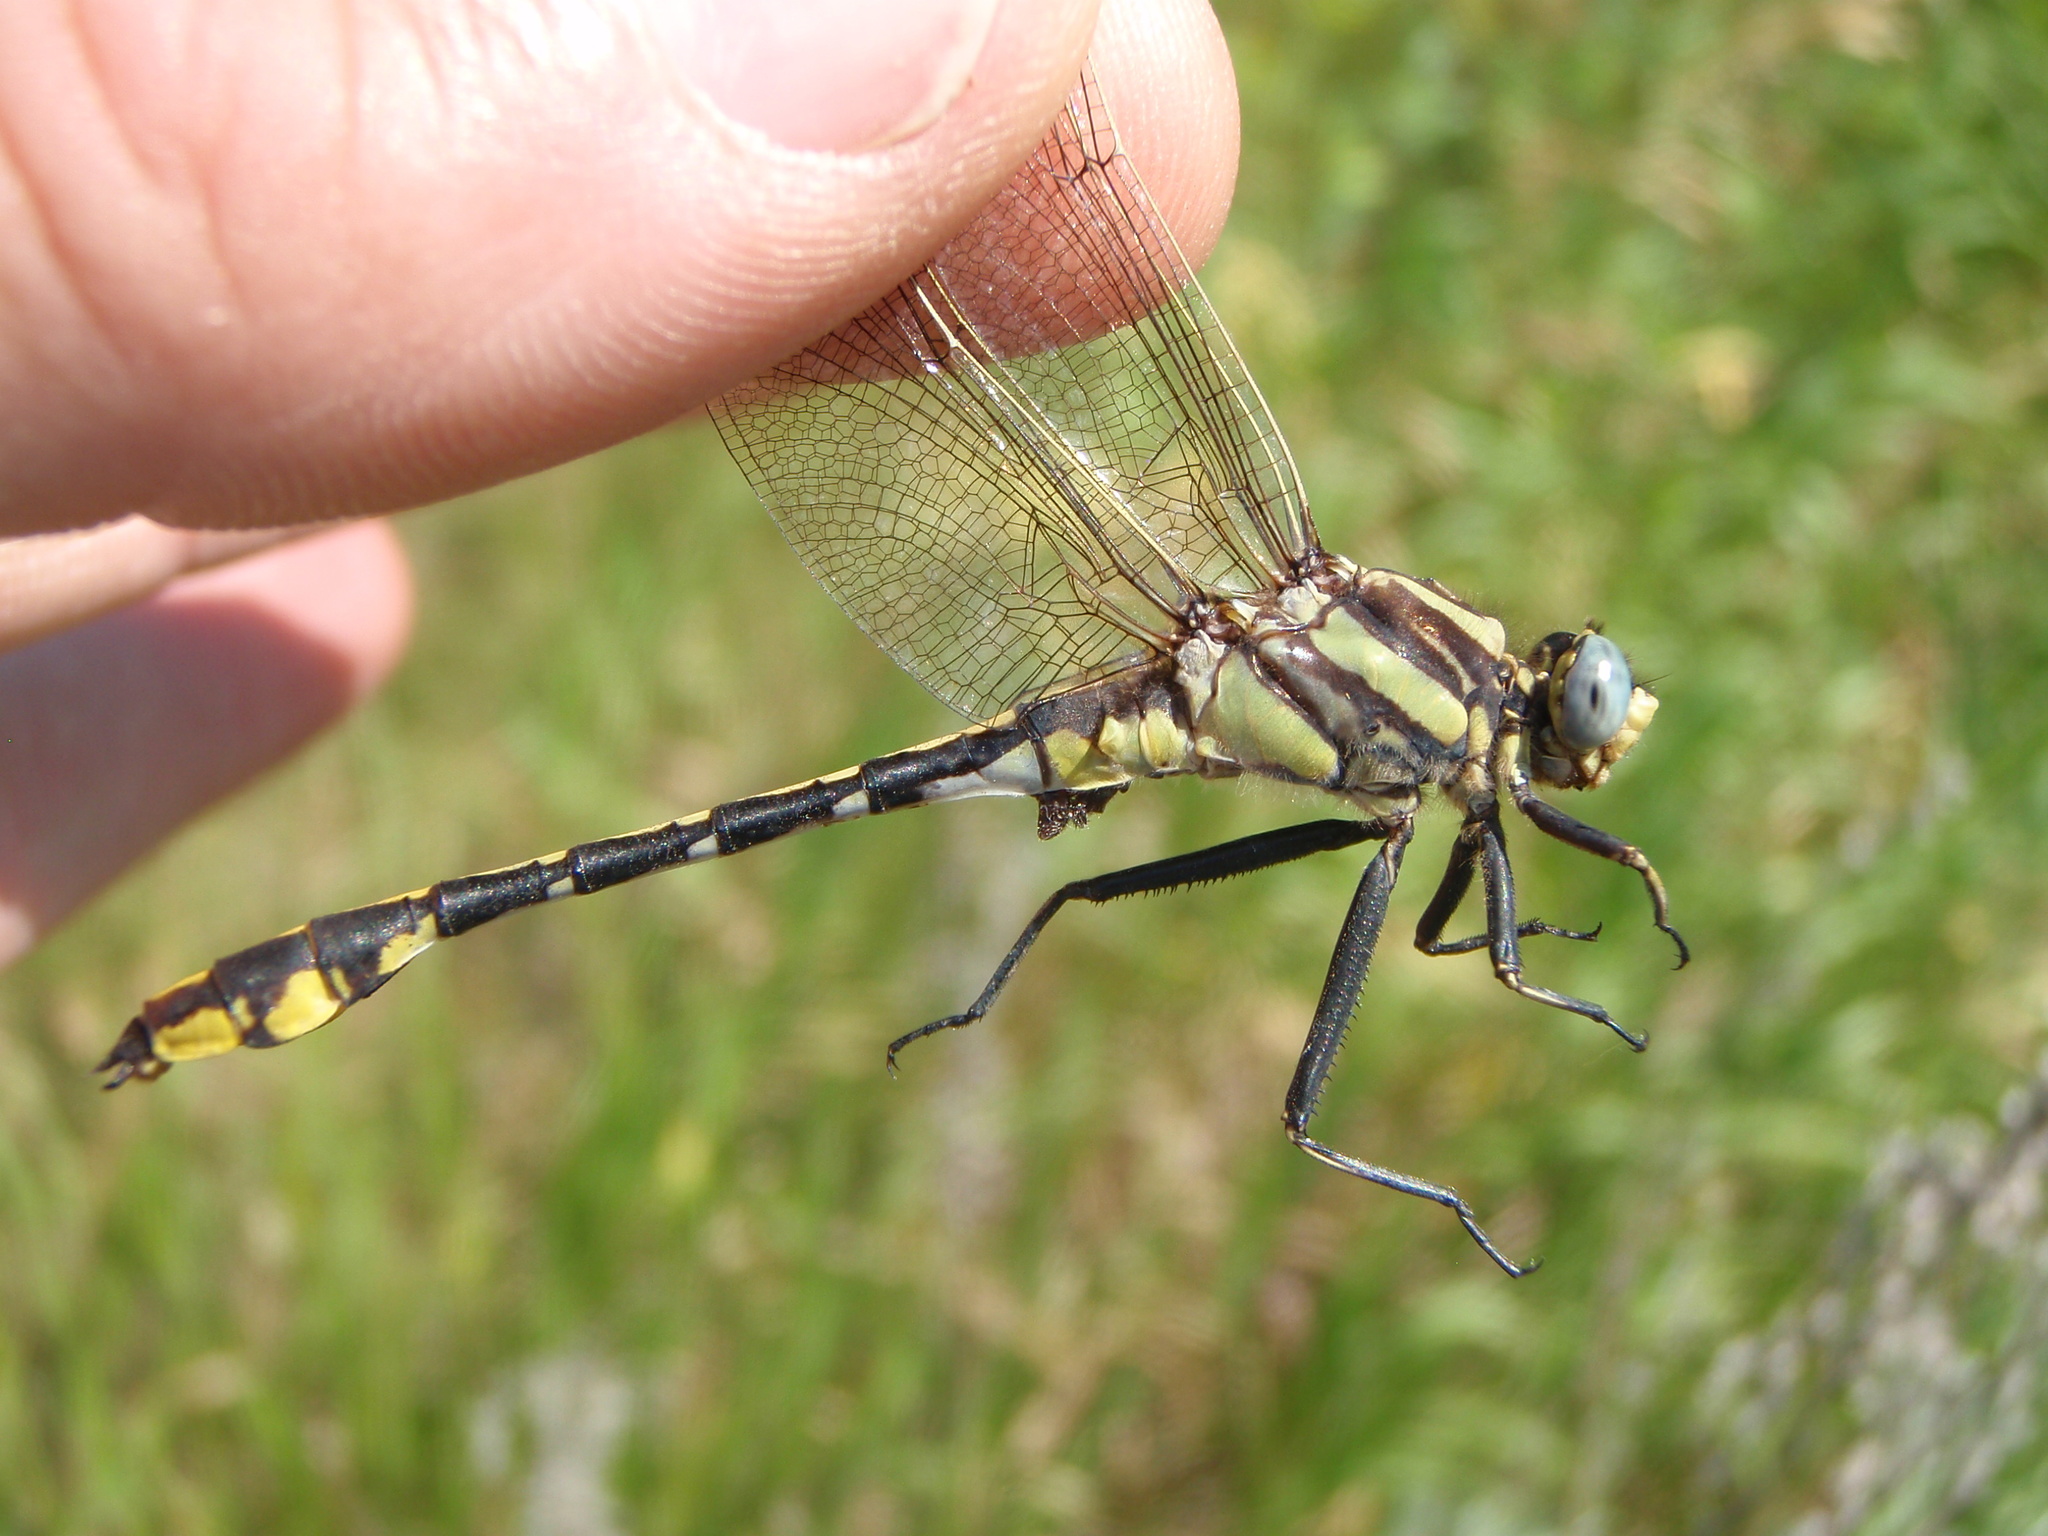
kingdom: Animalia
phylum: Arthropoda
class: Insecta
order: Odonata
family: Gomphidae
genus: Gomphurus
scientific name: Gomphurus externus
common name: Plains clubtail
